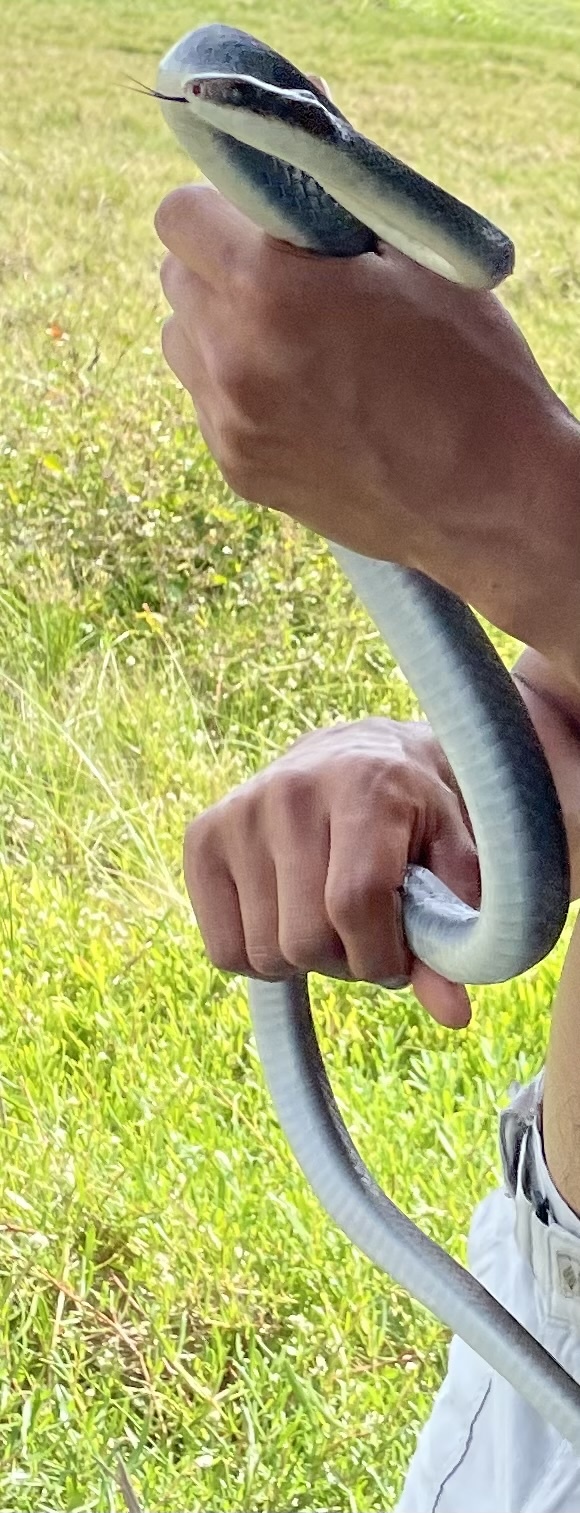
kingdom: Animalia
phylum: Chordata
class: Squamata
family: Colubridae
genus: Coluber
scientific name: Coluber constrictor
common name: Eastern racer
